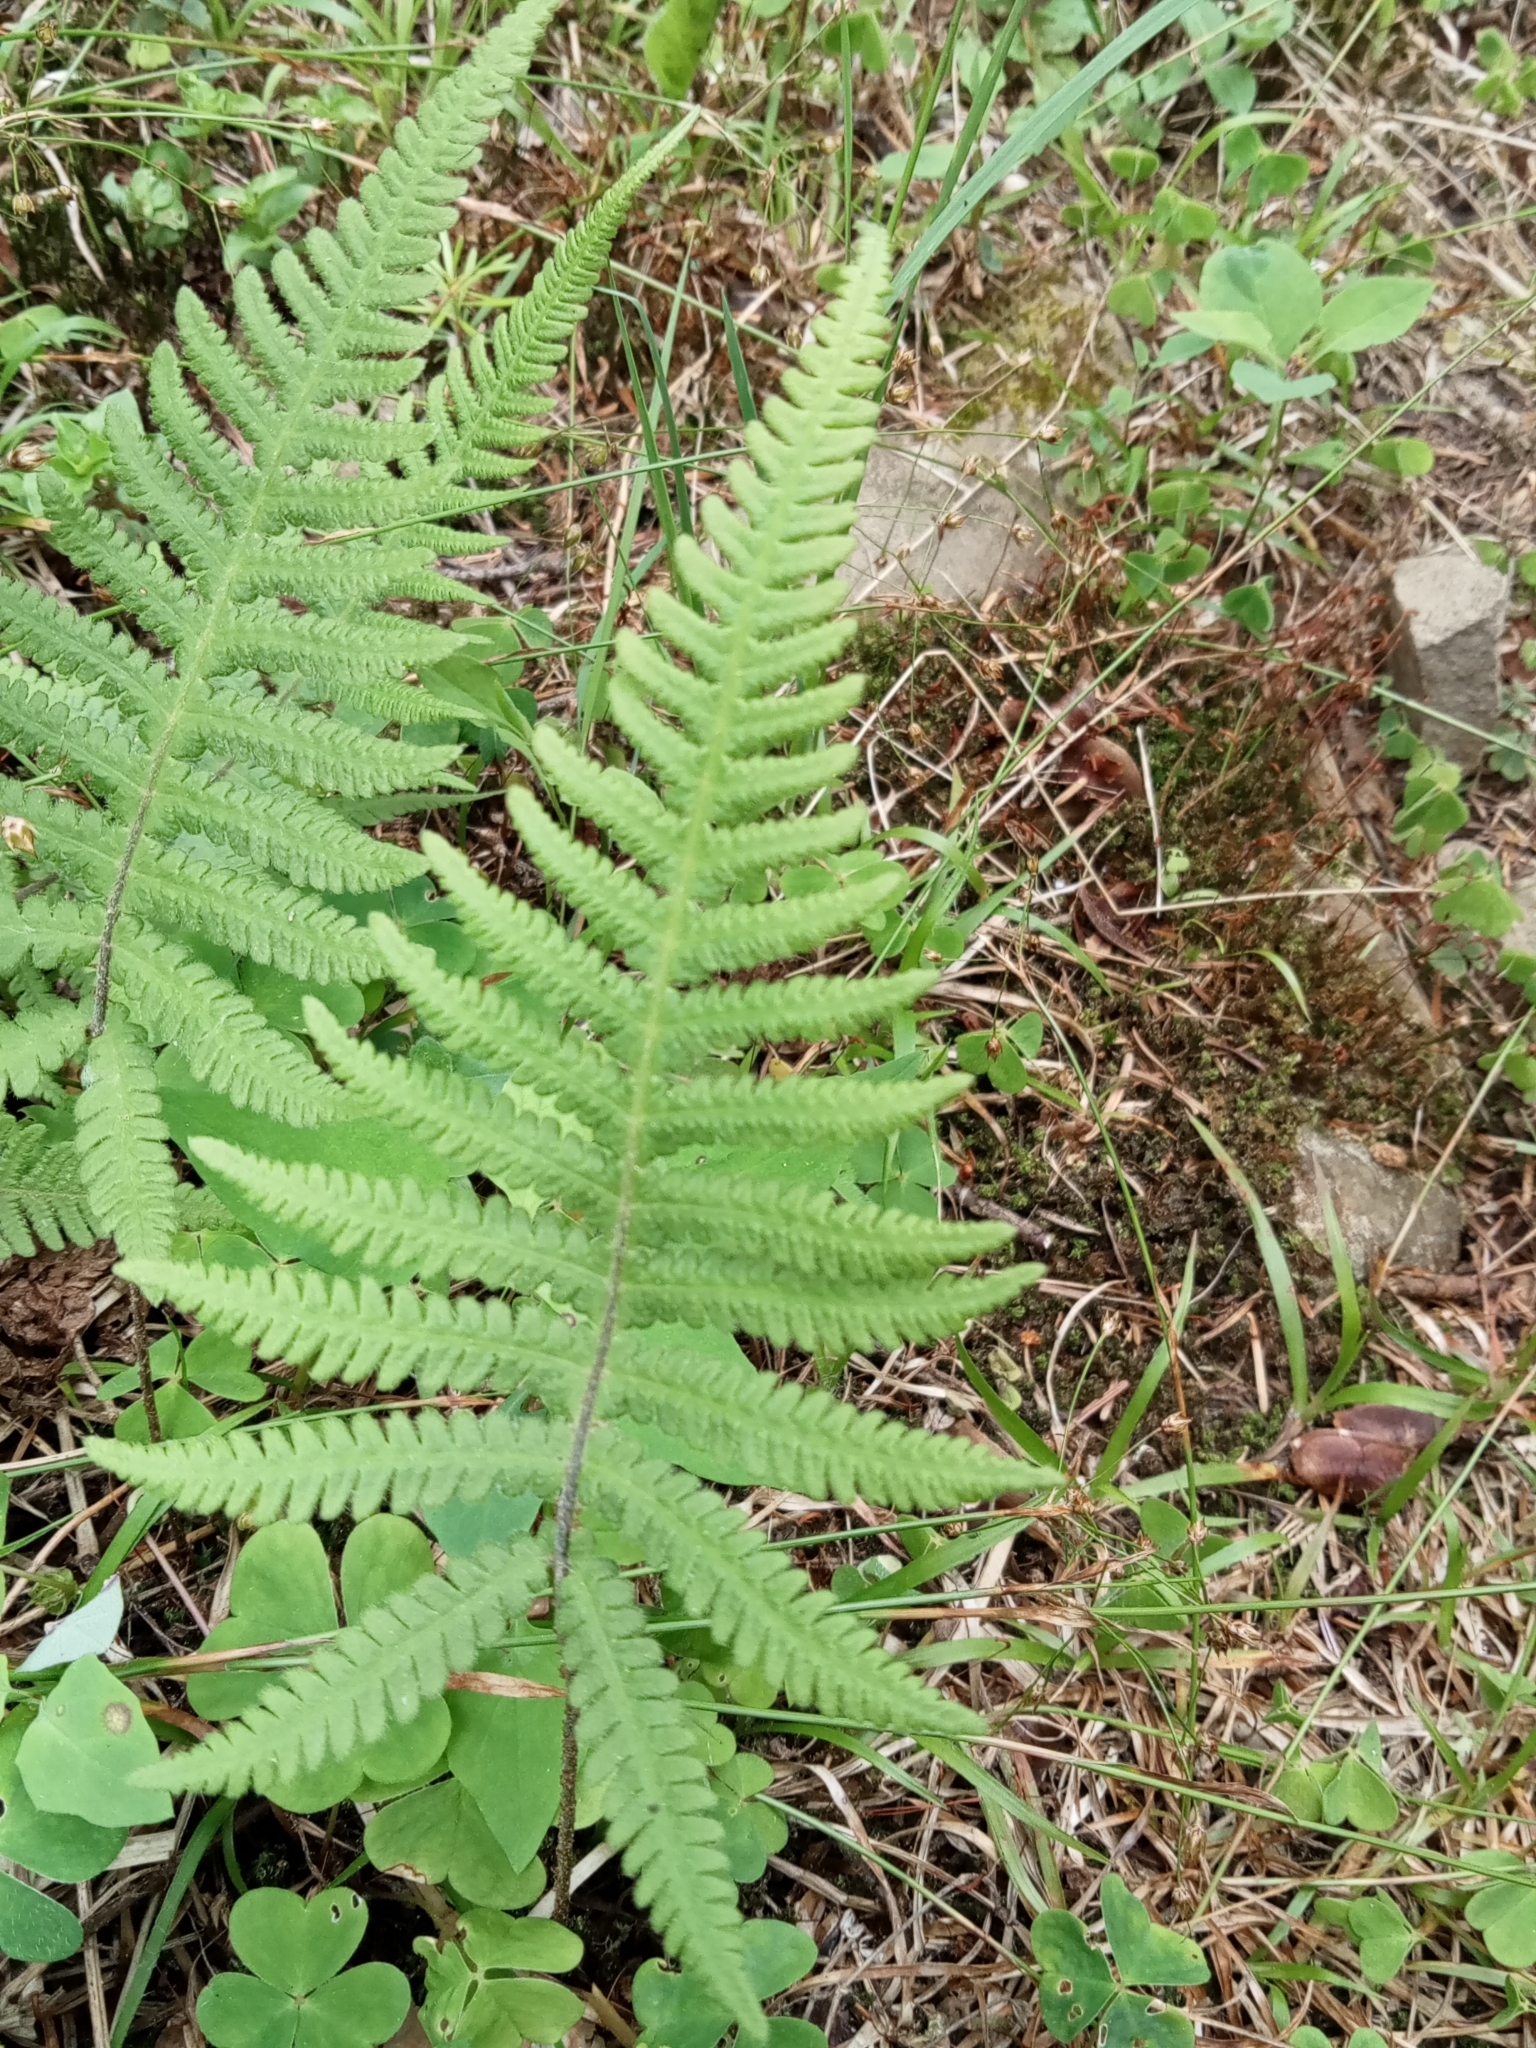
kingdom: Plantae
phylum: Tracheophyta
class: Polypodiopsida
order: Polypodiales
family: Thelypteridaceae
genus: Phegopteris
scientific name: Phegopteris connectilis
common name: Beech fern
